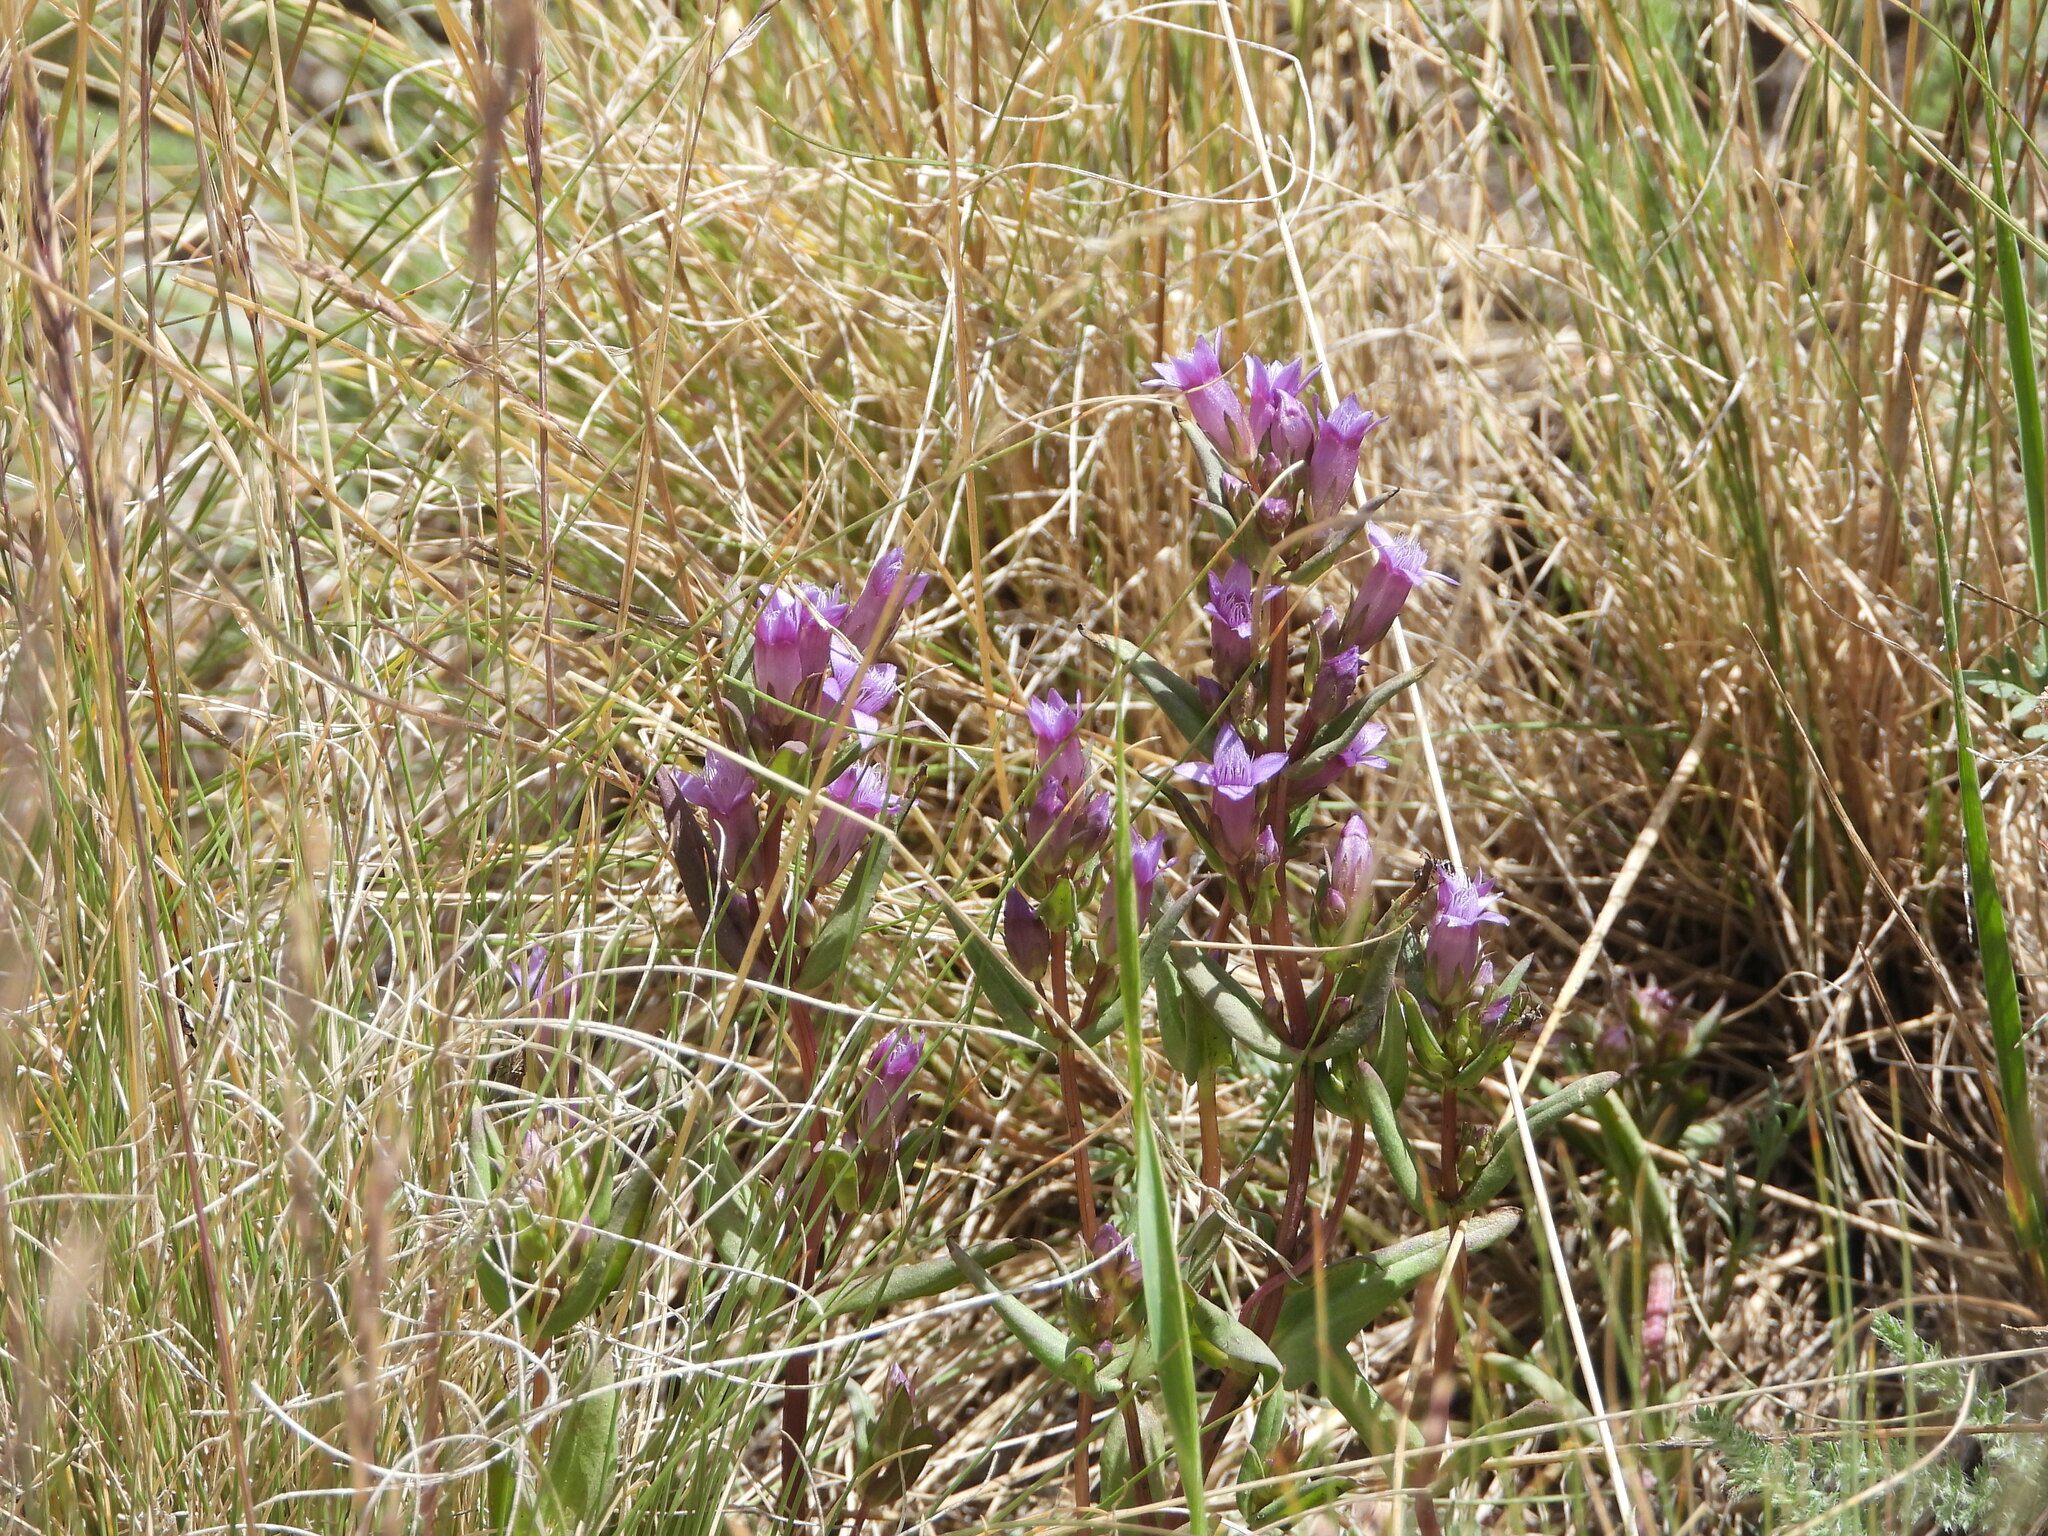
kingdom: Plantae
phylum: Tracheophyta
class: Magnoliopsida
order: Gentianales
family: Gentianaceae
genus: Gentianella
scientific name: Gentianella amarella
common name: Autumn gentian
